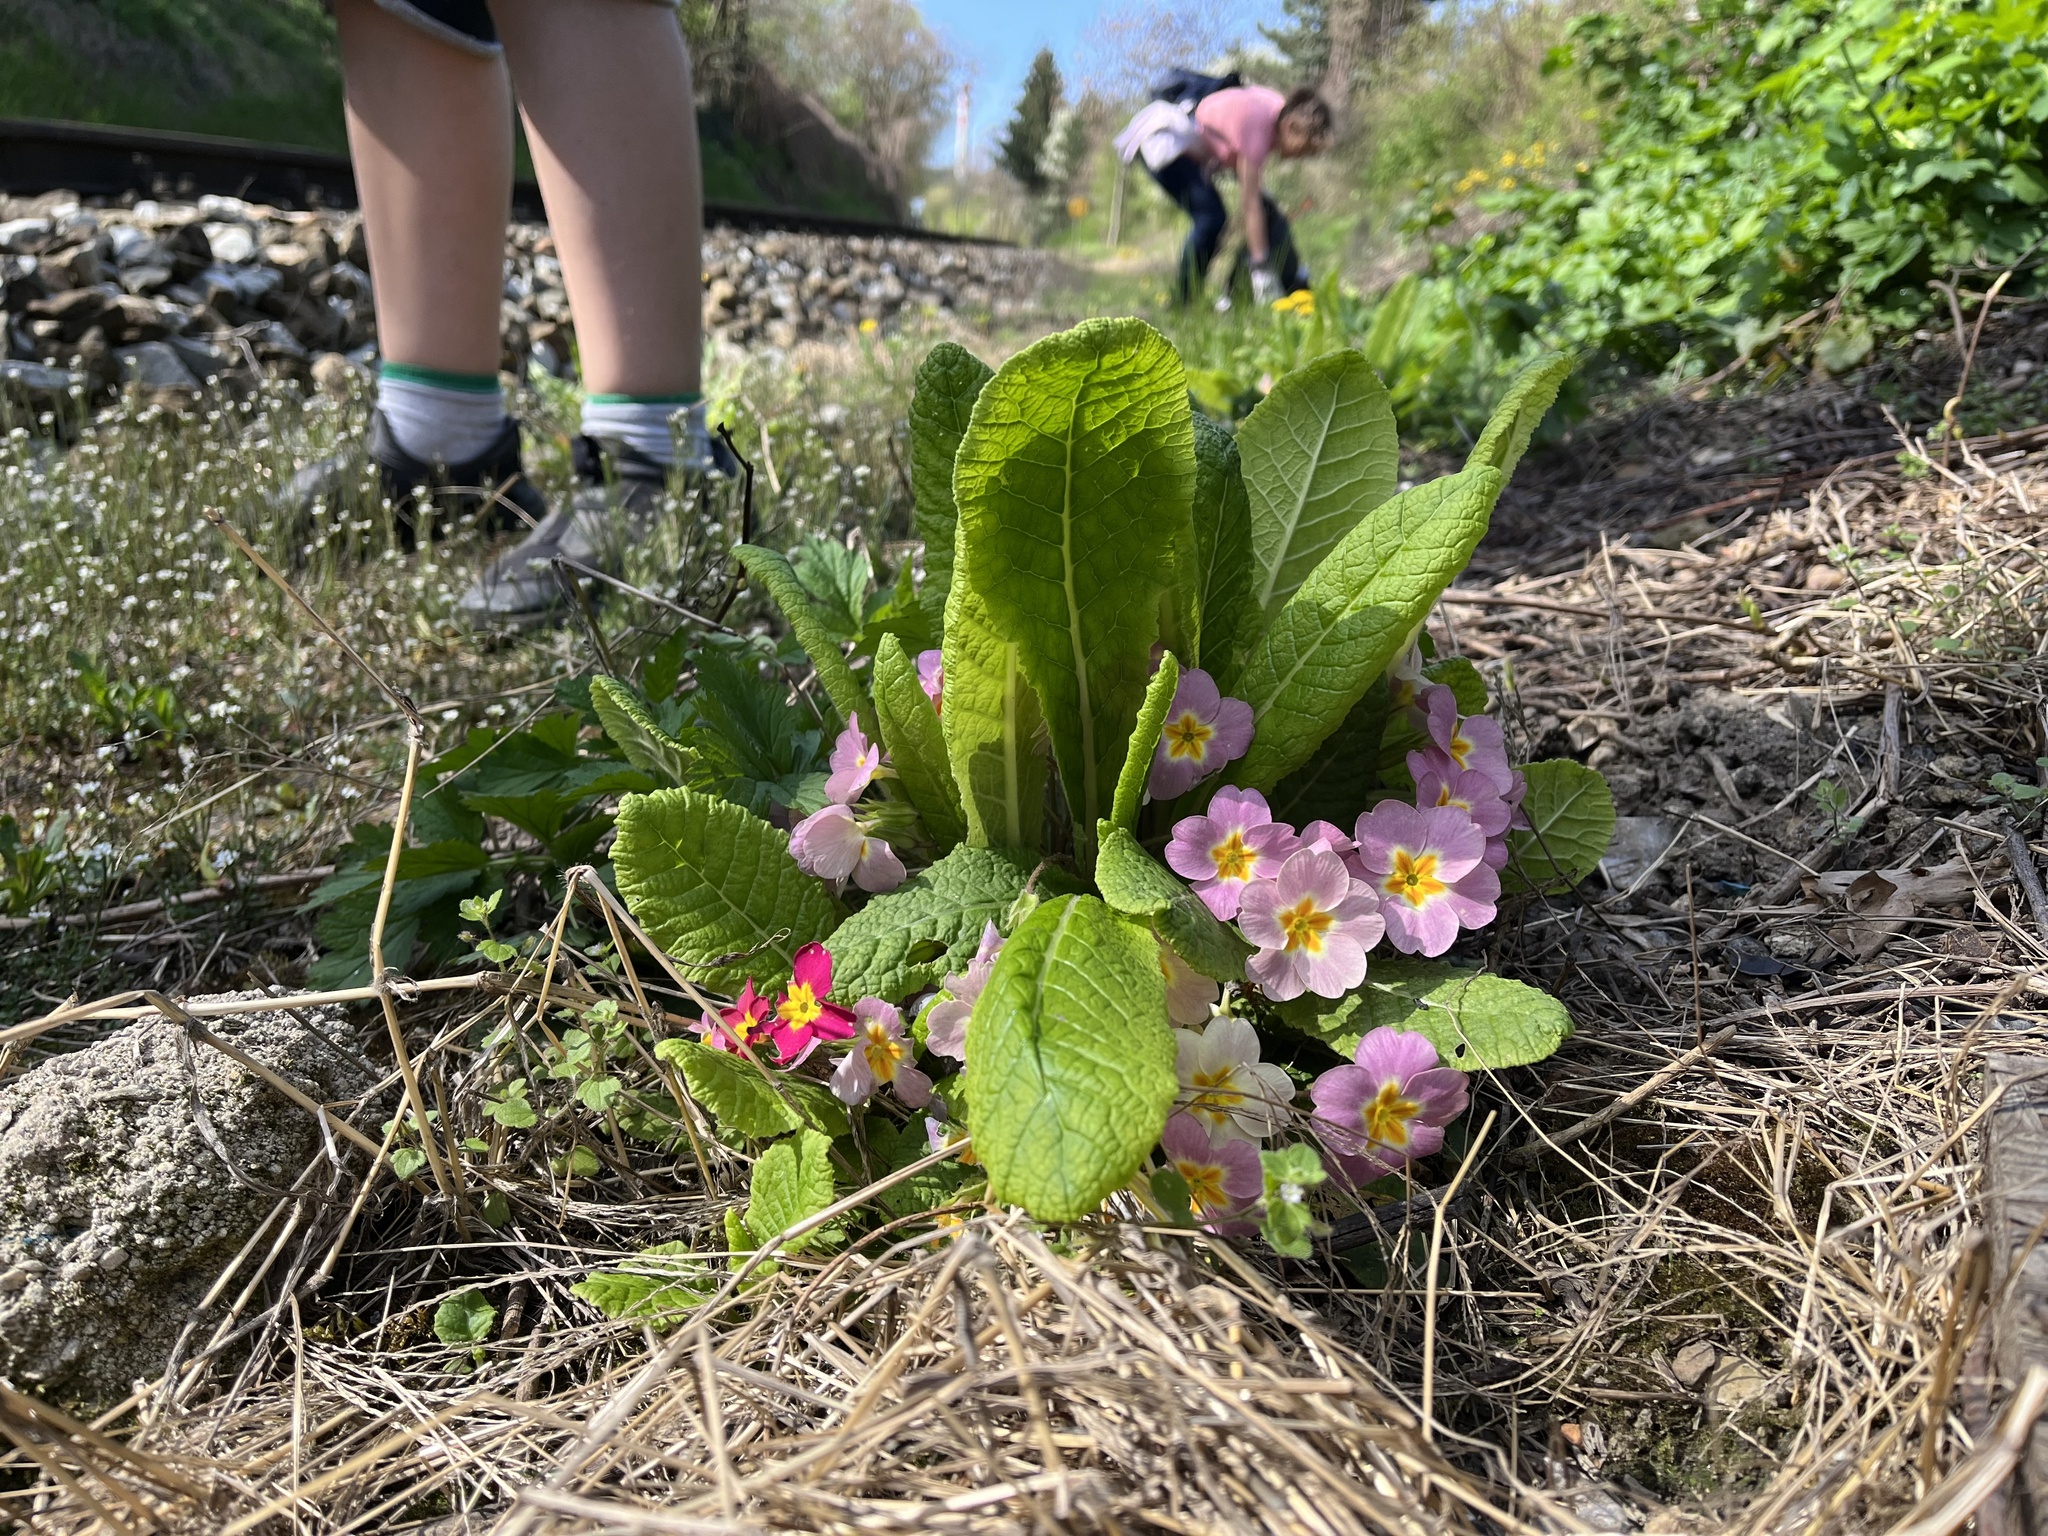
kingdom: Plantae
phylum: Tracheophyta
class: Magnoliopsida
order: Ericales
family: Primulaceae
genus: Primula
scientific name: Primula vulgaris
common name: Primrose
